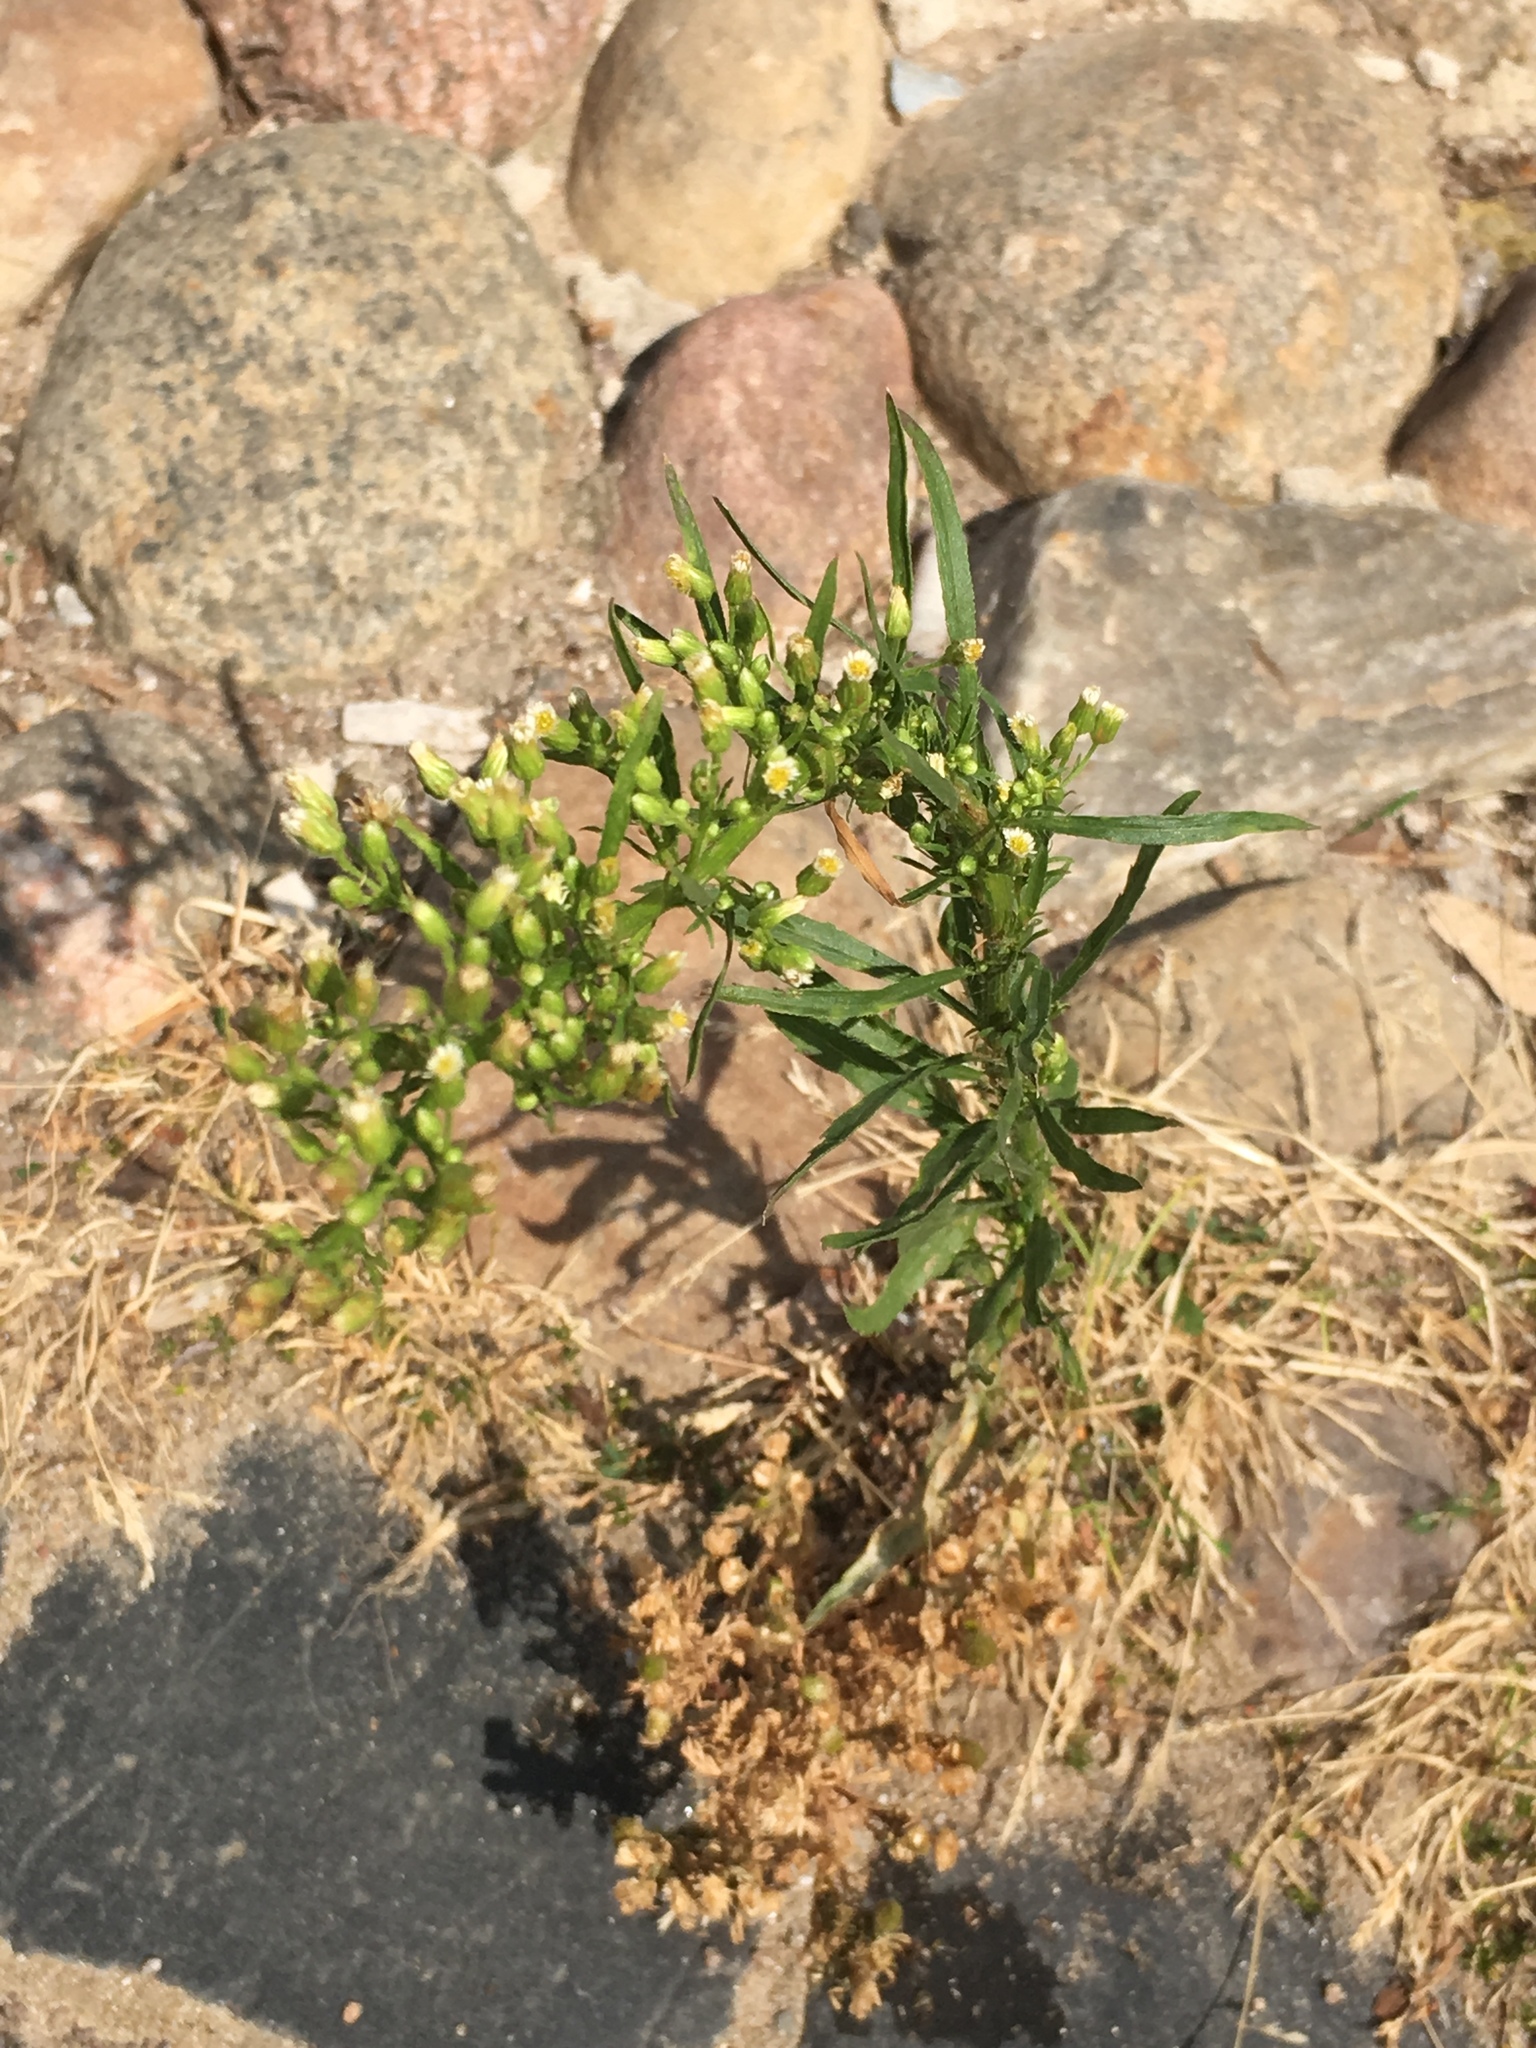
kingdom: Plantae
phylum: Tracheophyta
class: Magnoliopsida
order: Asterales
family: Asteraceae
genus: Erigeron
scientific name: Erigeron canadensis
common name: Canadian fleabane
